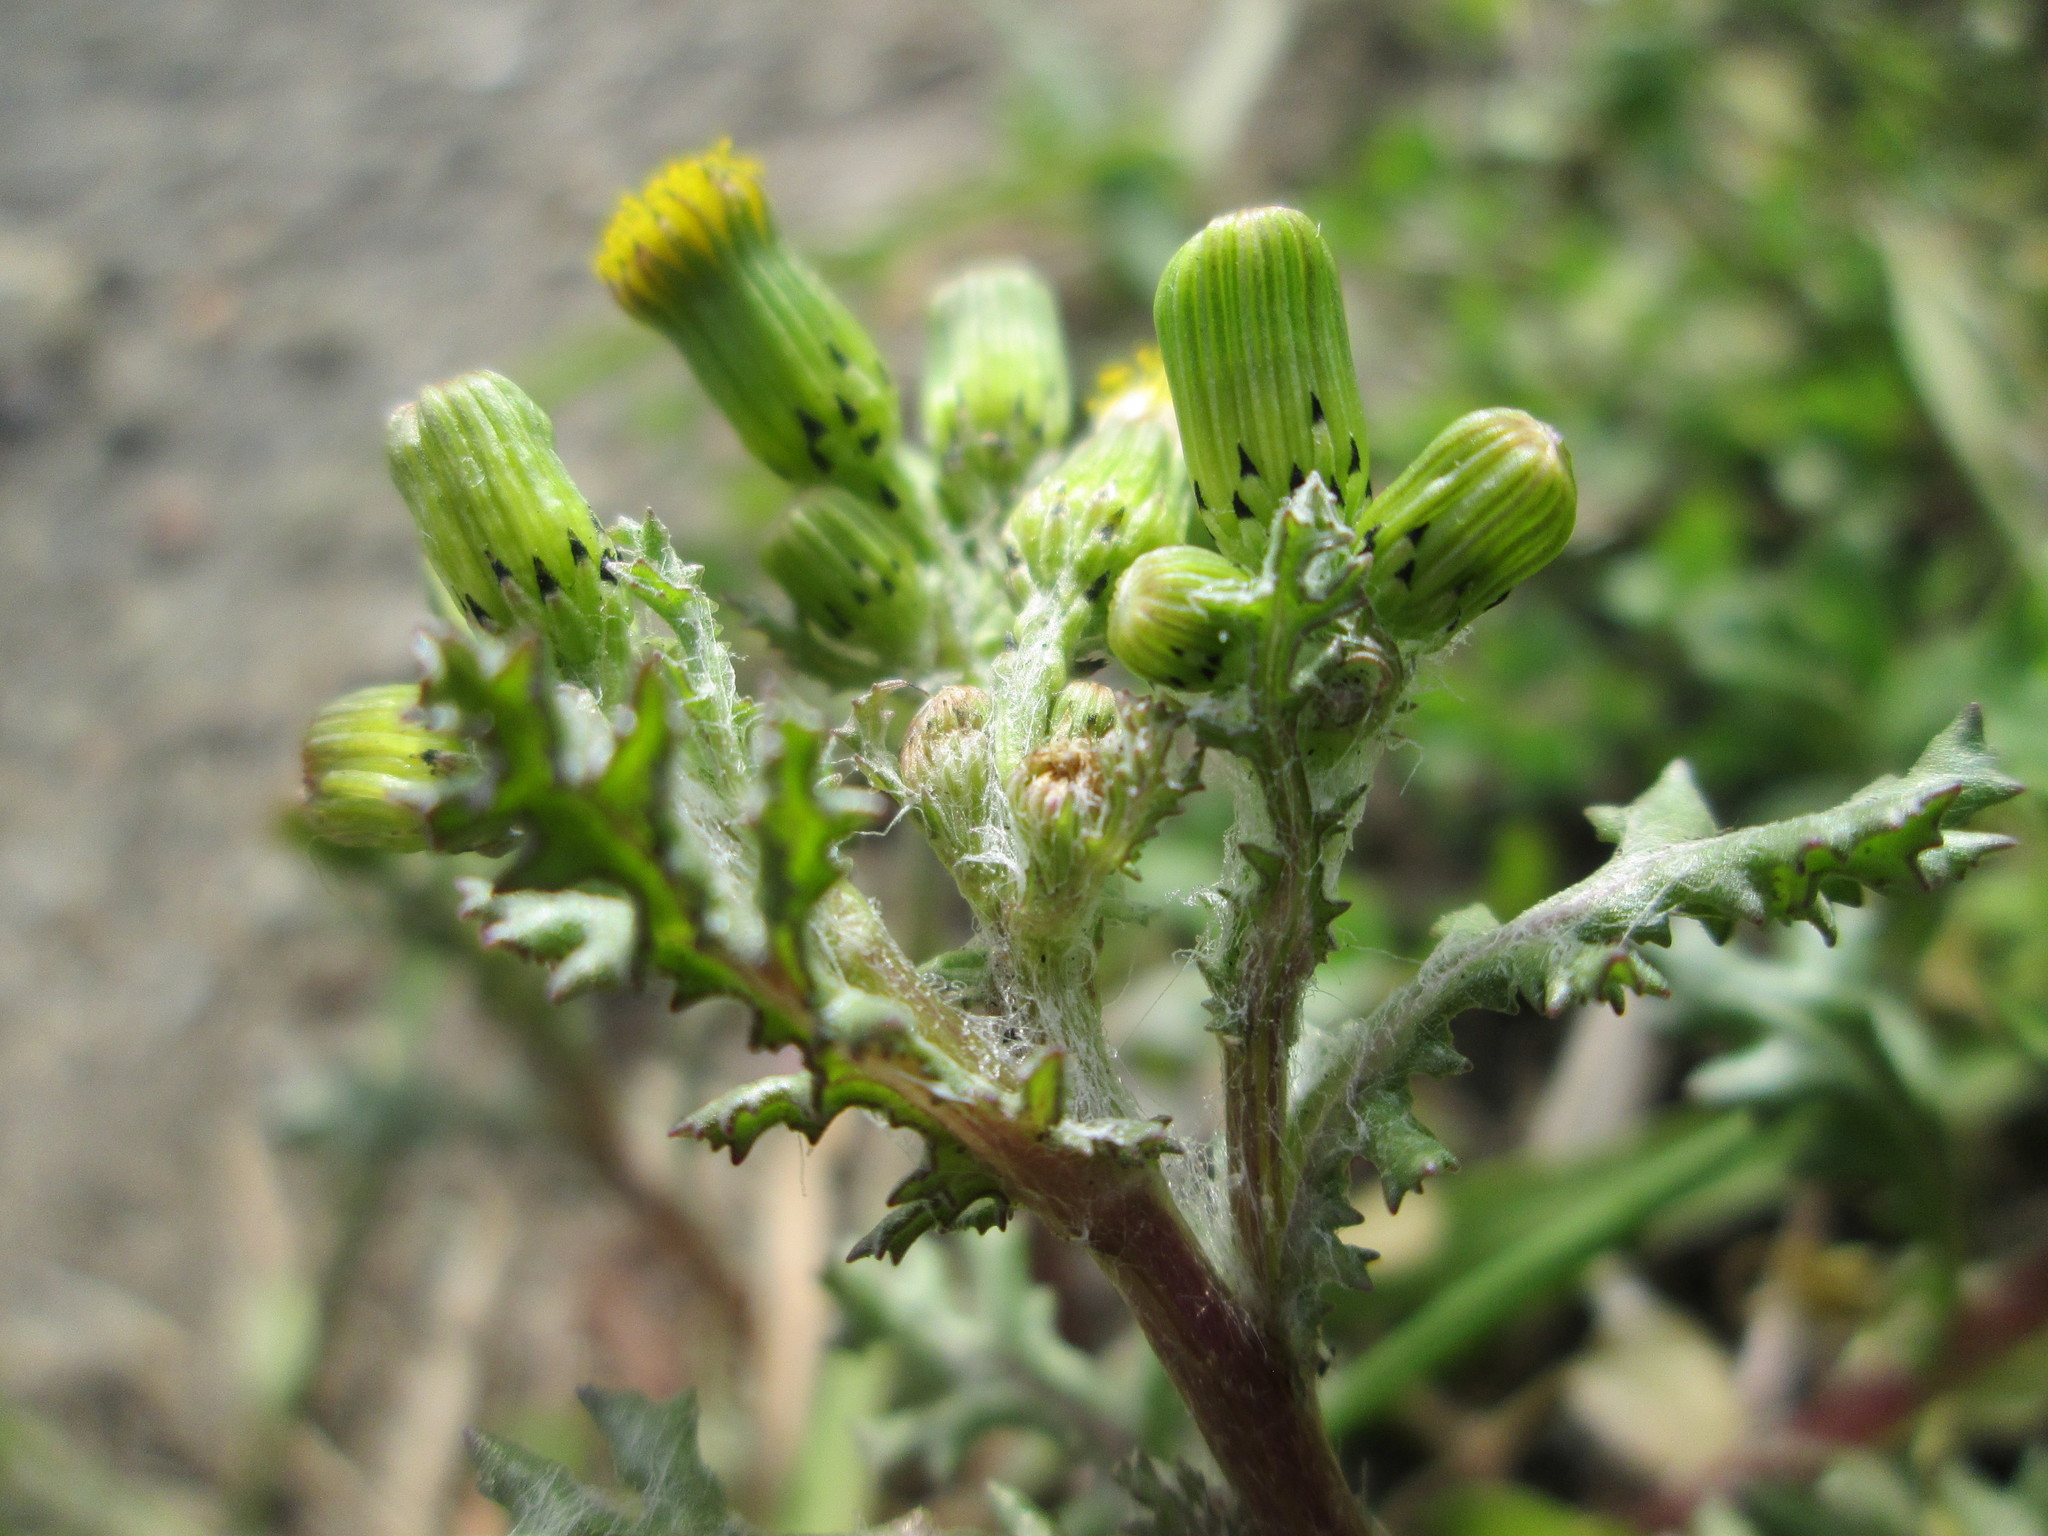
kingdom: Plantae
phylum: Tracheophyta
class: Magnoliopsida
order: Asterales
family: Asteraceae
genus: Senecio
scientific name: Senecio vulgaris
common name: Old-man-in-the-spring
